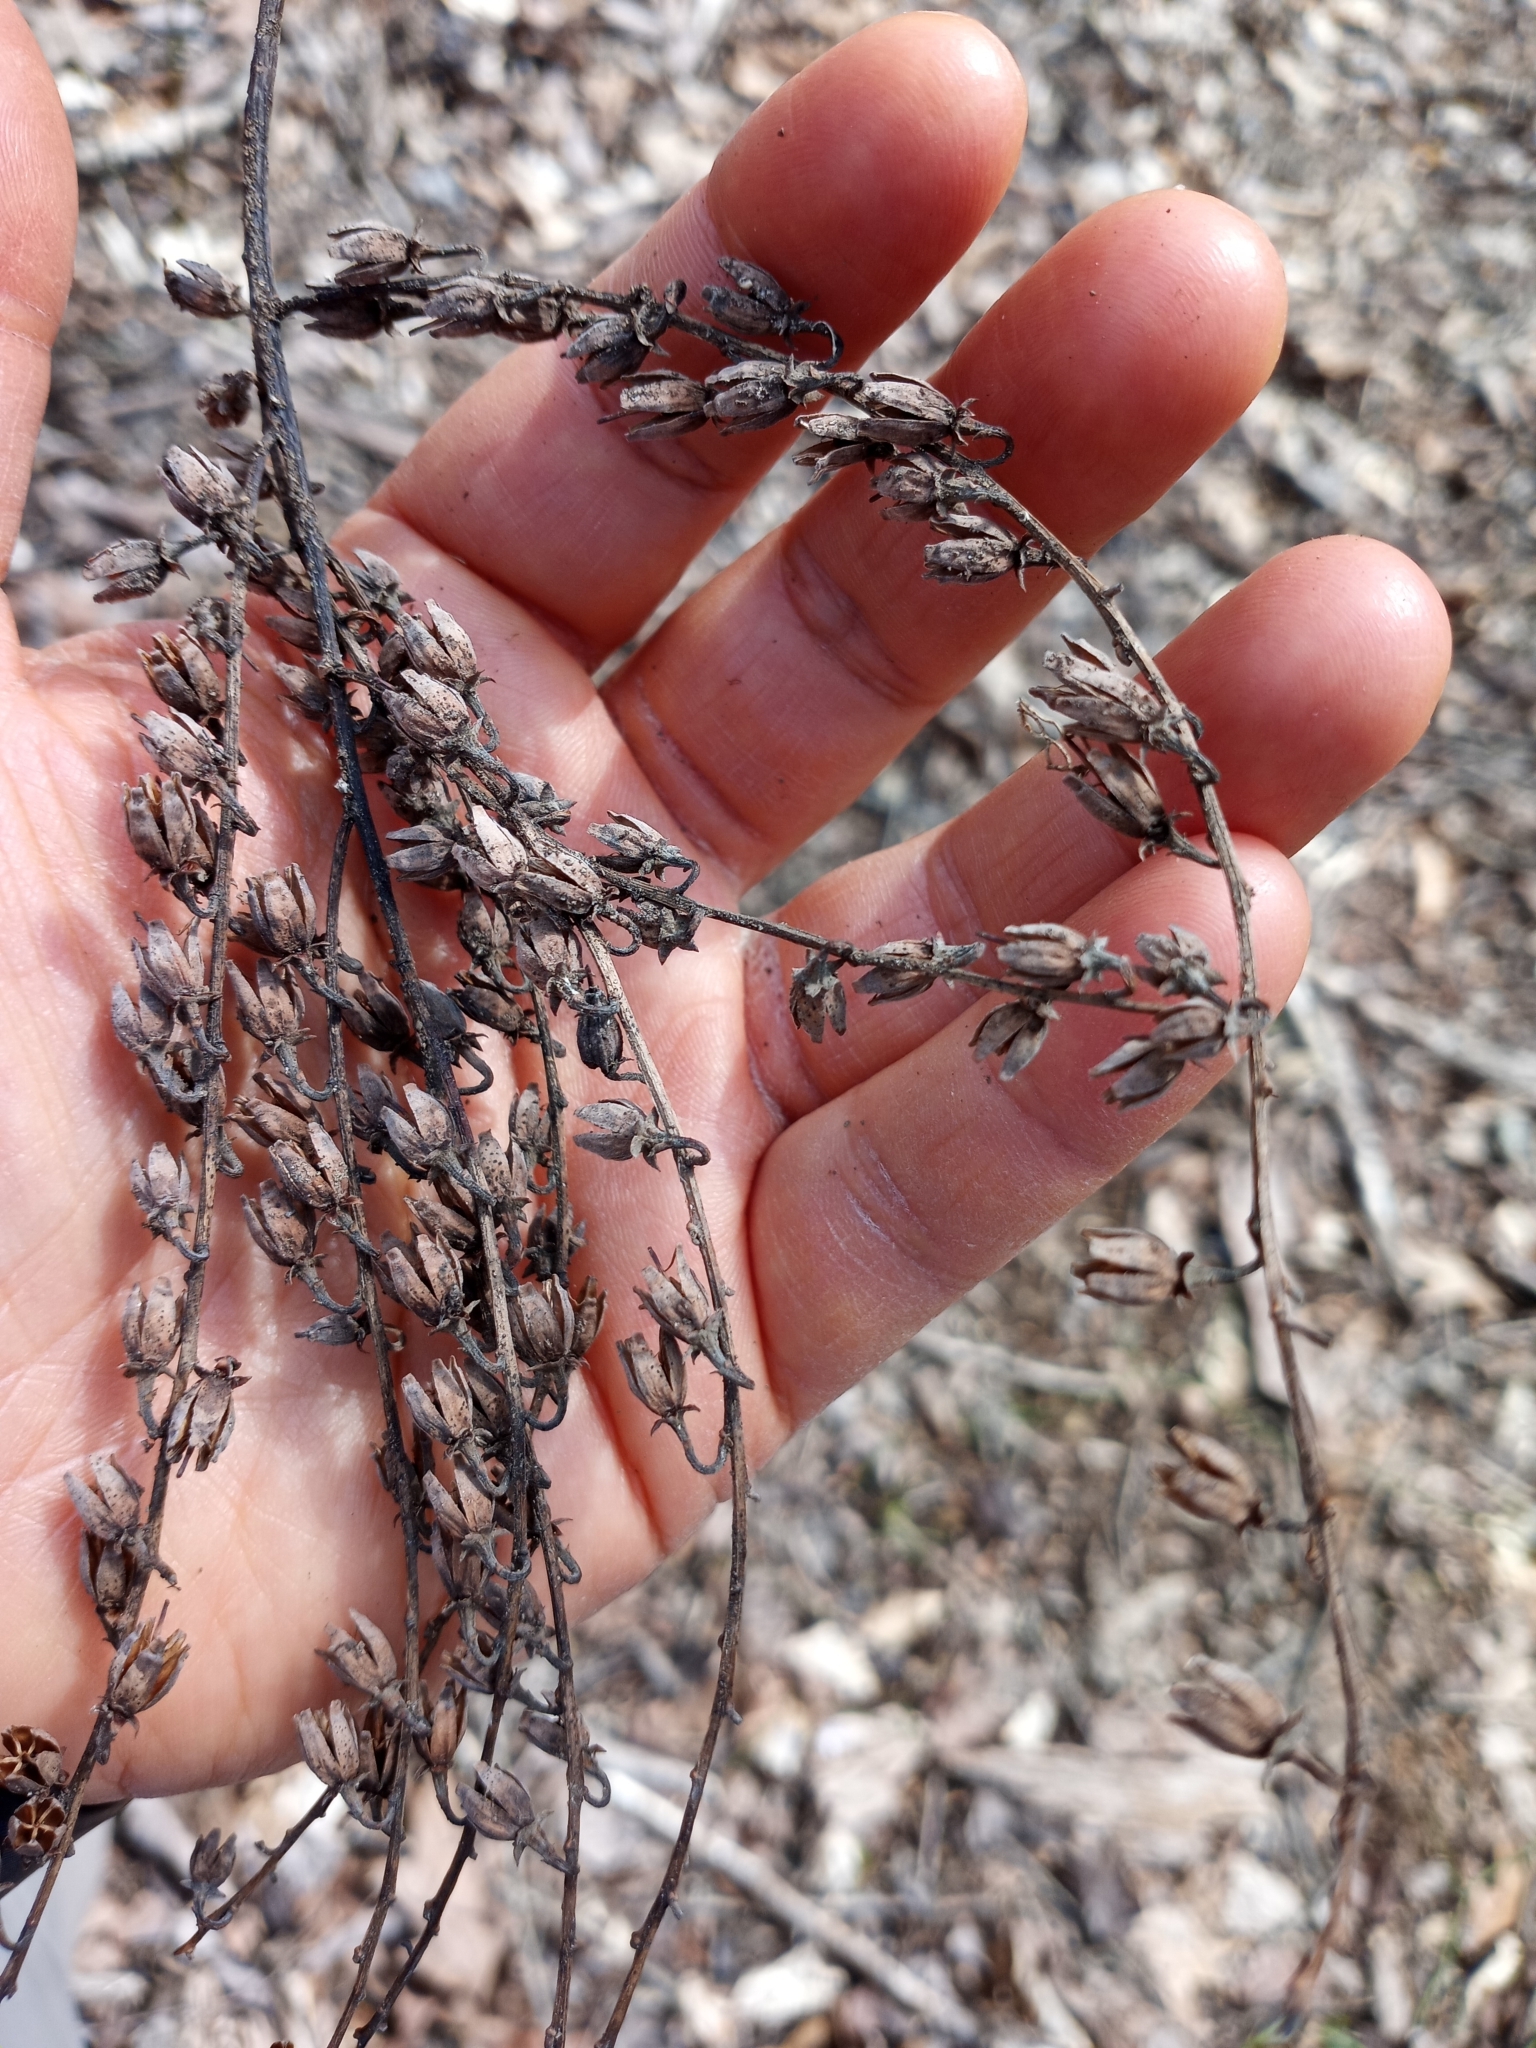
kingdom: Plantae
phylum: Tracheophyta
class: Magnoliopsida
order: Ericales
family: Ericaceae
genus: Oxydendrum
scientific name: Oxydendrum arboreum
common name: Sourwood
